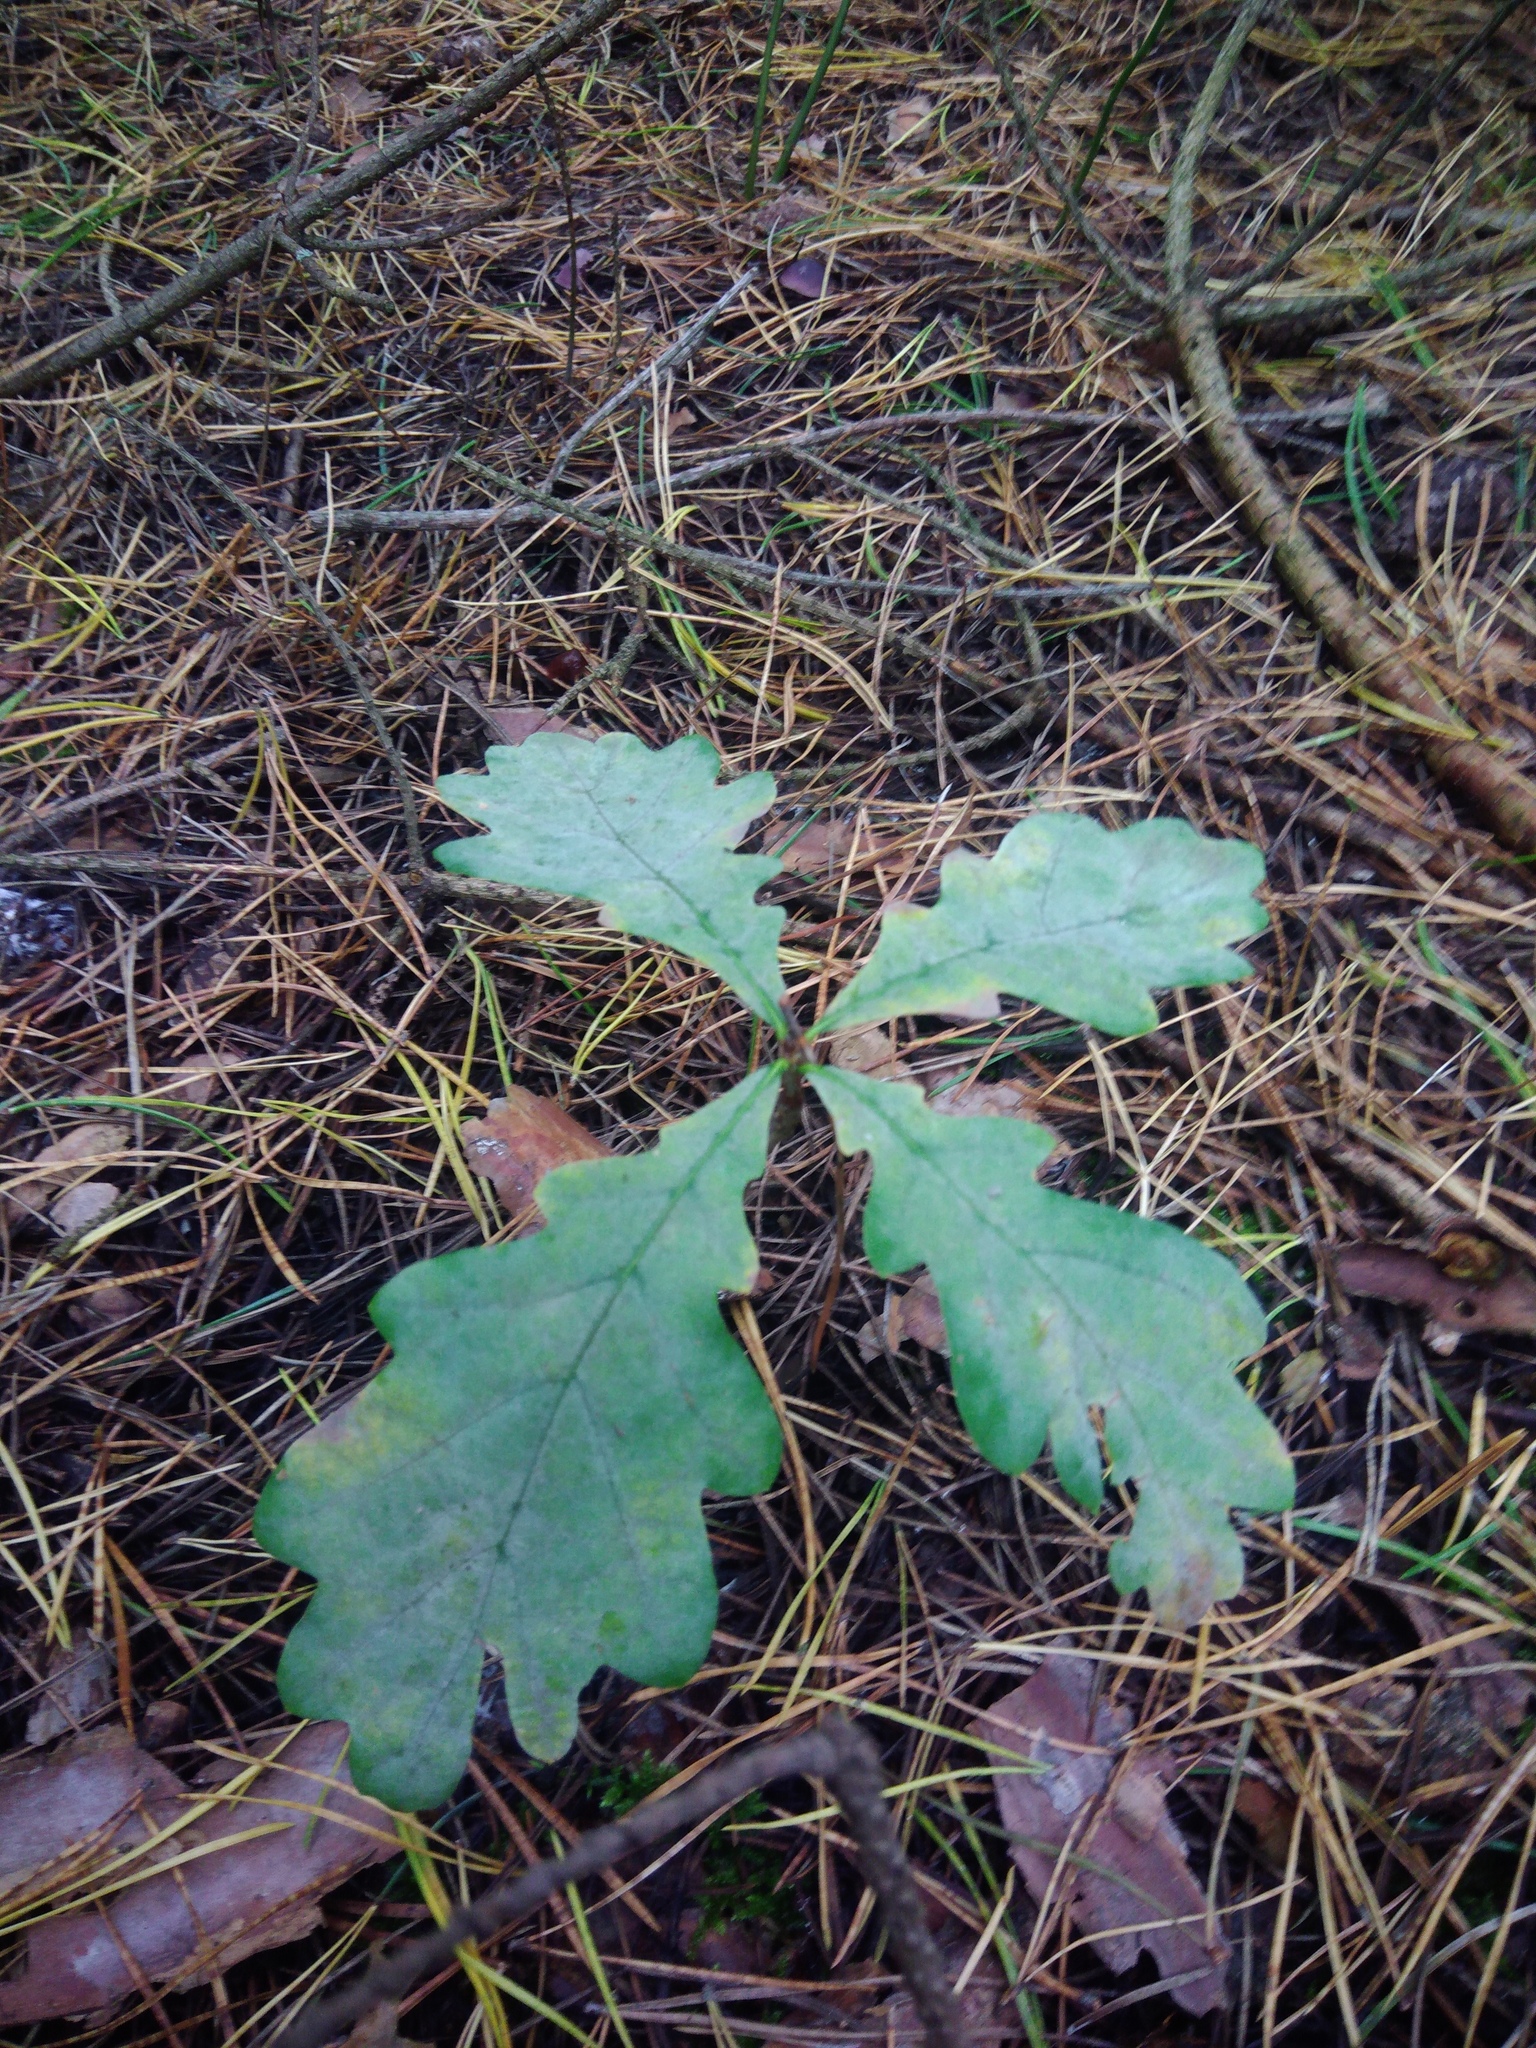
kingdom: Plantae
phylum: Tracheophyta
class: Magnoliopsida
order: Fagales
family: Fagaceae
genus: Quercus
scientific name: Quercus robur
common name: Pedunculate oak
